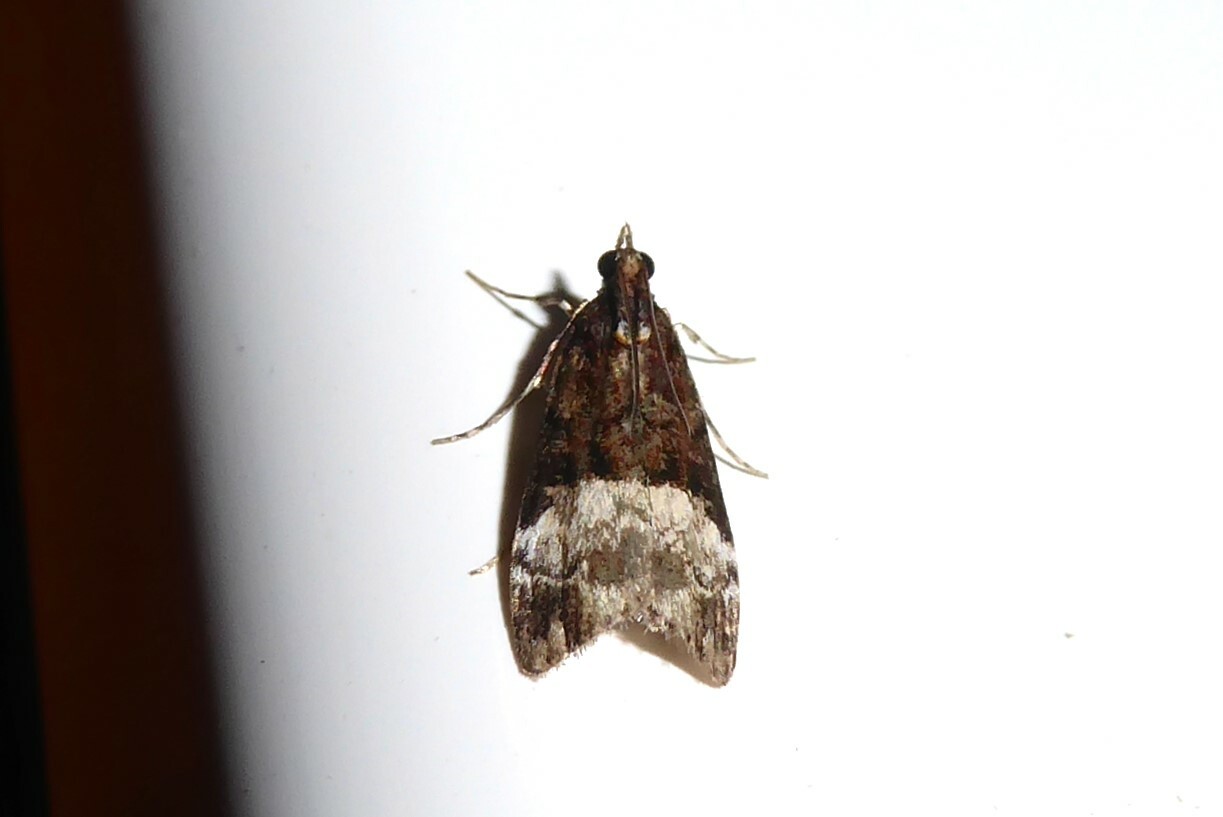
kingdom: Animalia
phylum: Arthropoda
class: Insecta
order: Lepidoptera
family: Crambidae
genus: Scoparia
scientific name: Scoparia minusculalis
